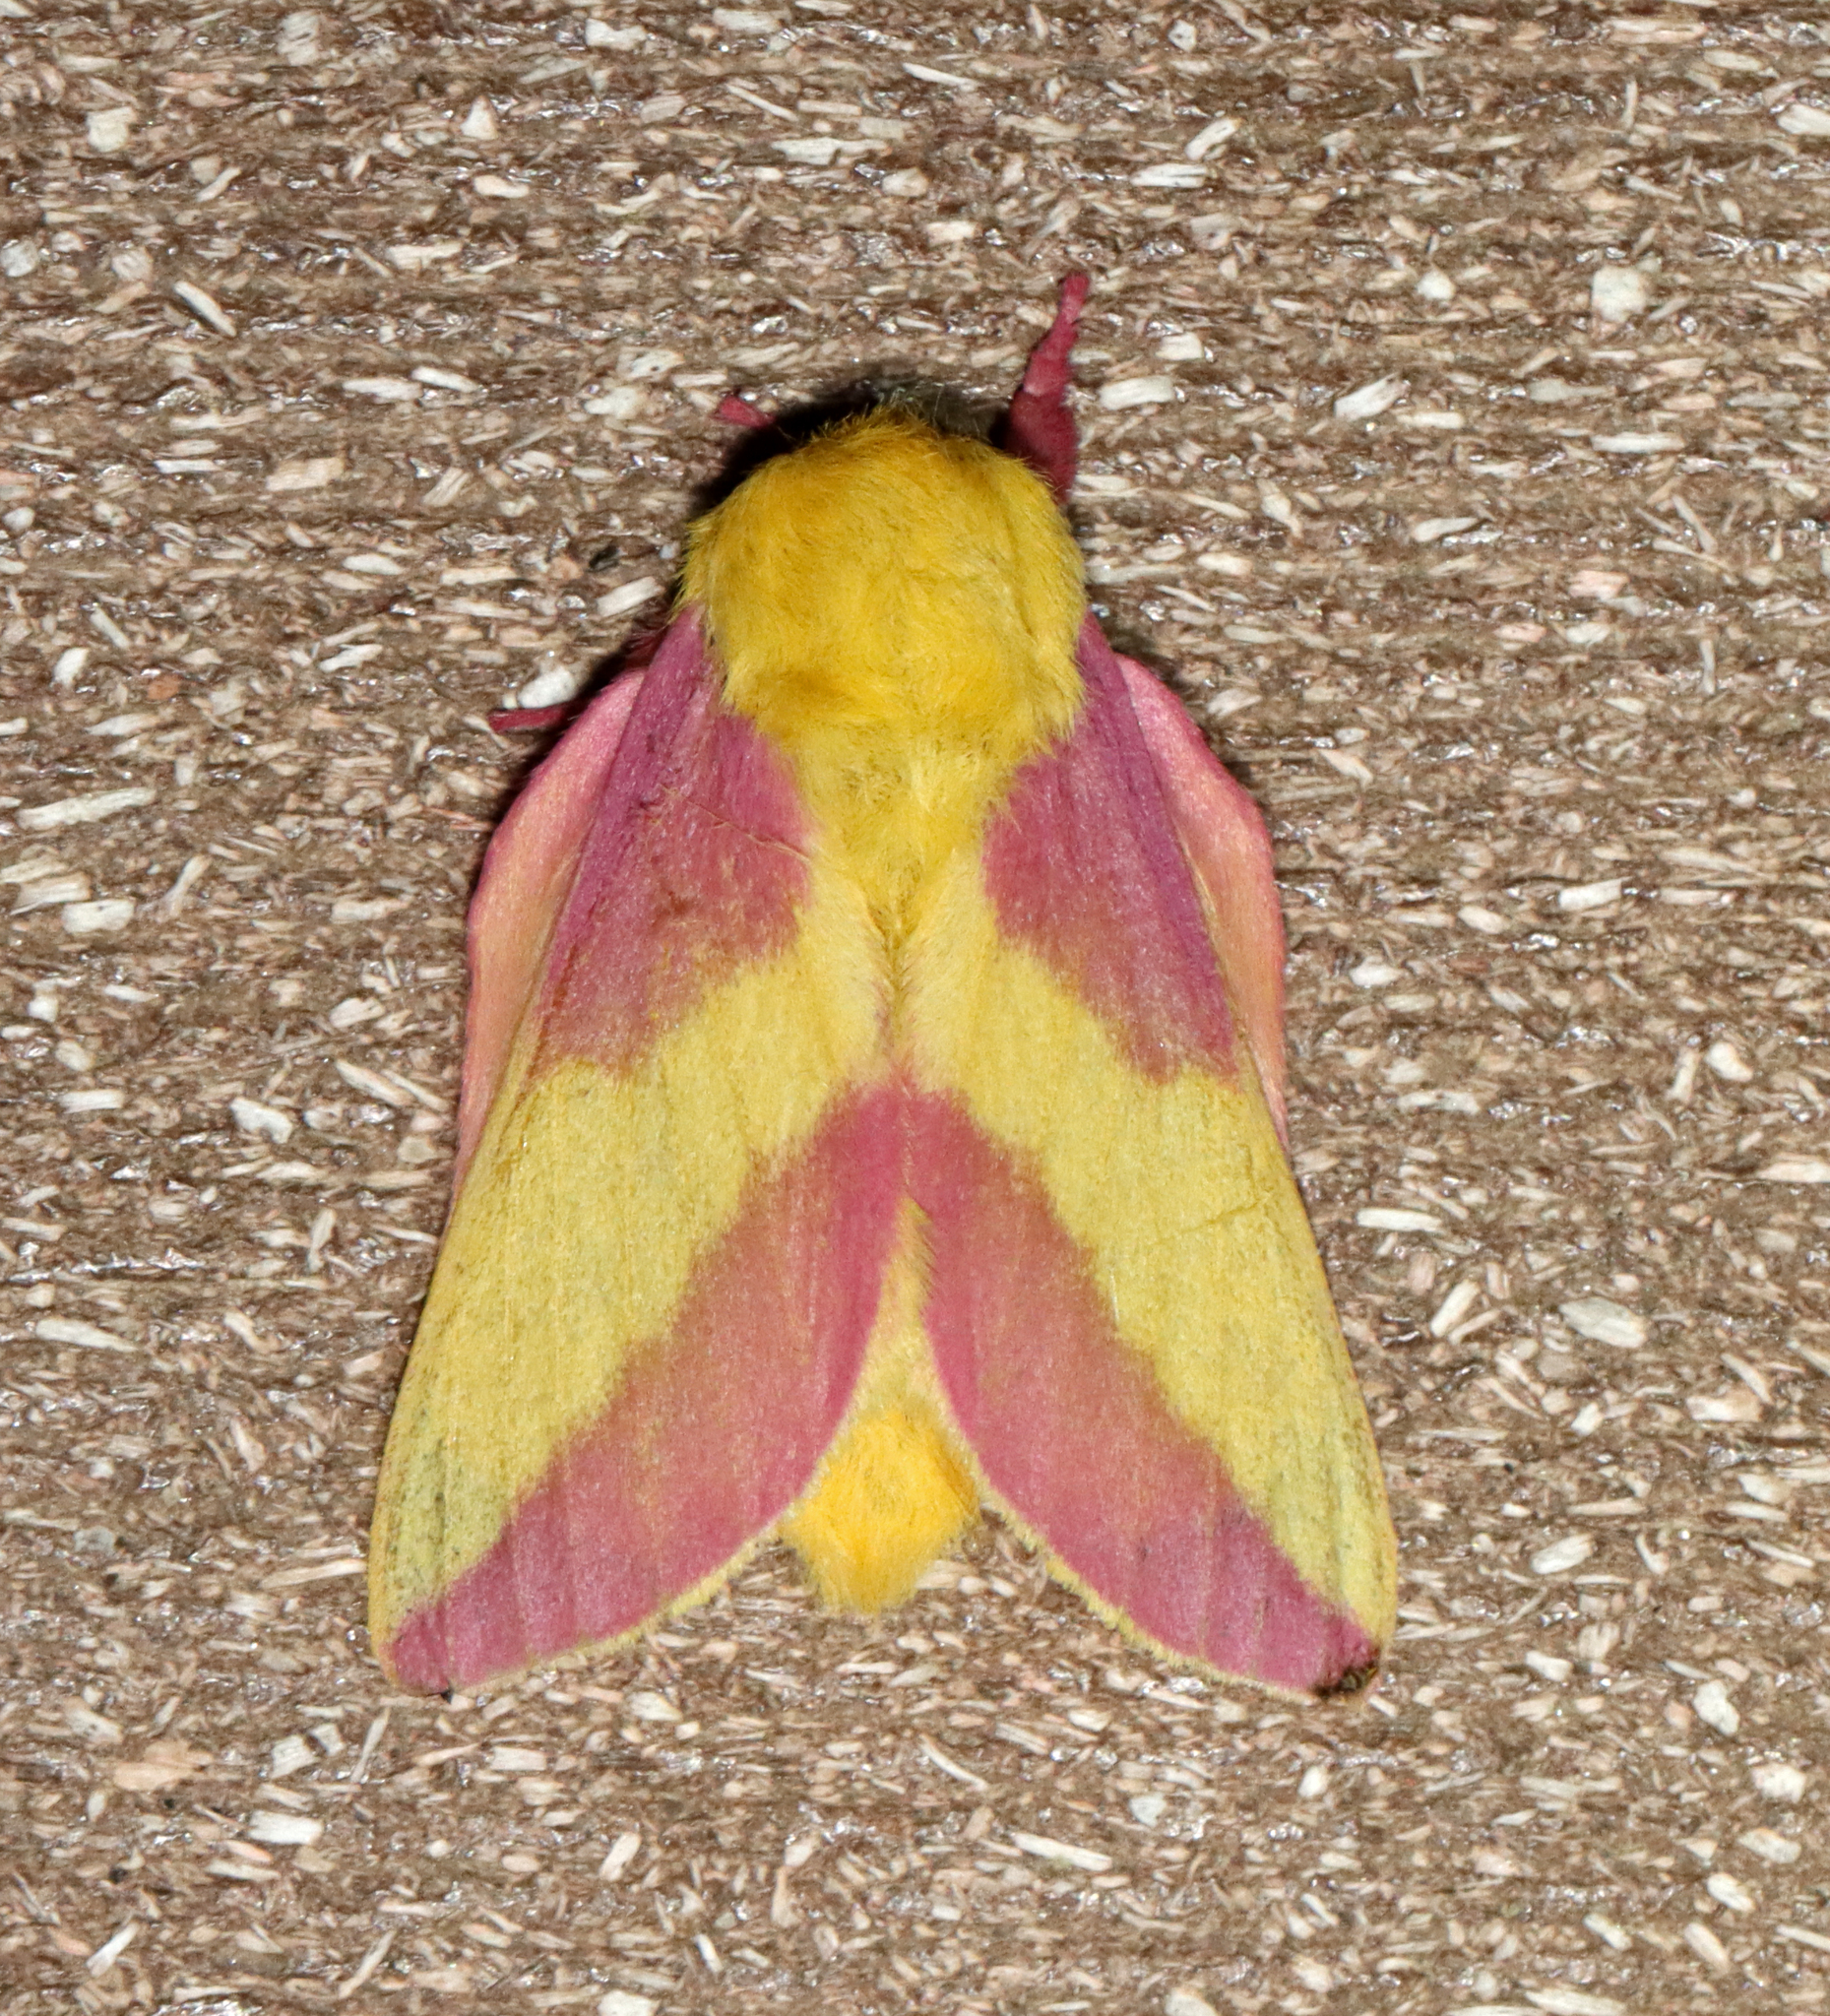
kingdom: Animalia
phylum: Arthropoda
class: Insecta
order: Lepidoptera
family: Saturniidae
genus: Dryocampa
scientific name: Dryocampa rubicunda
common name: Rosy maple moth
